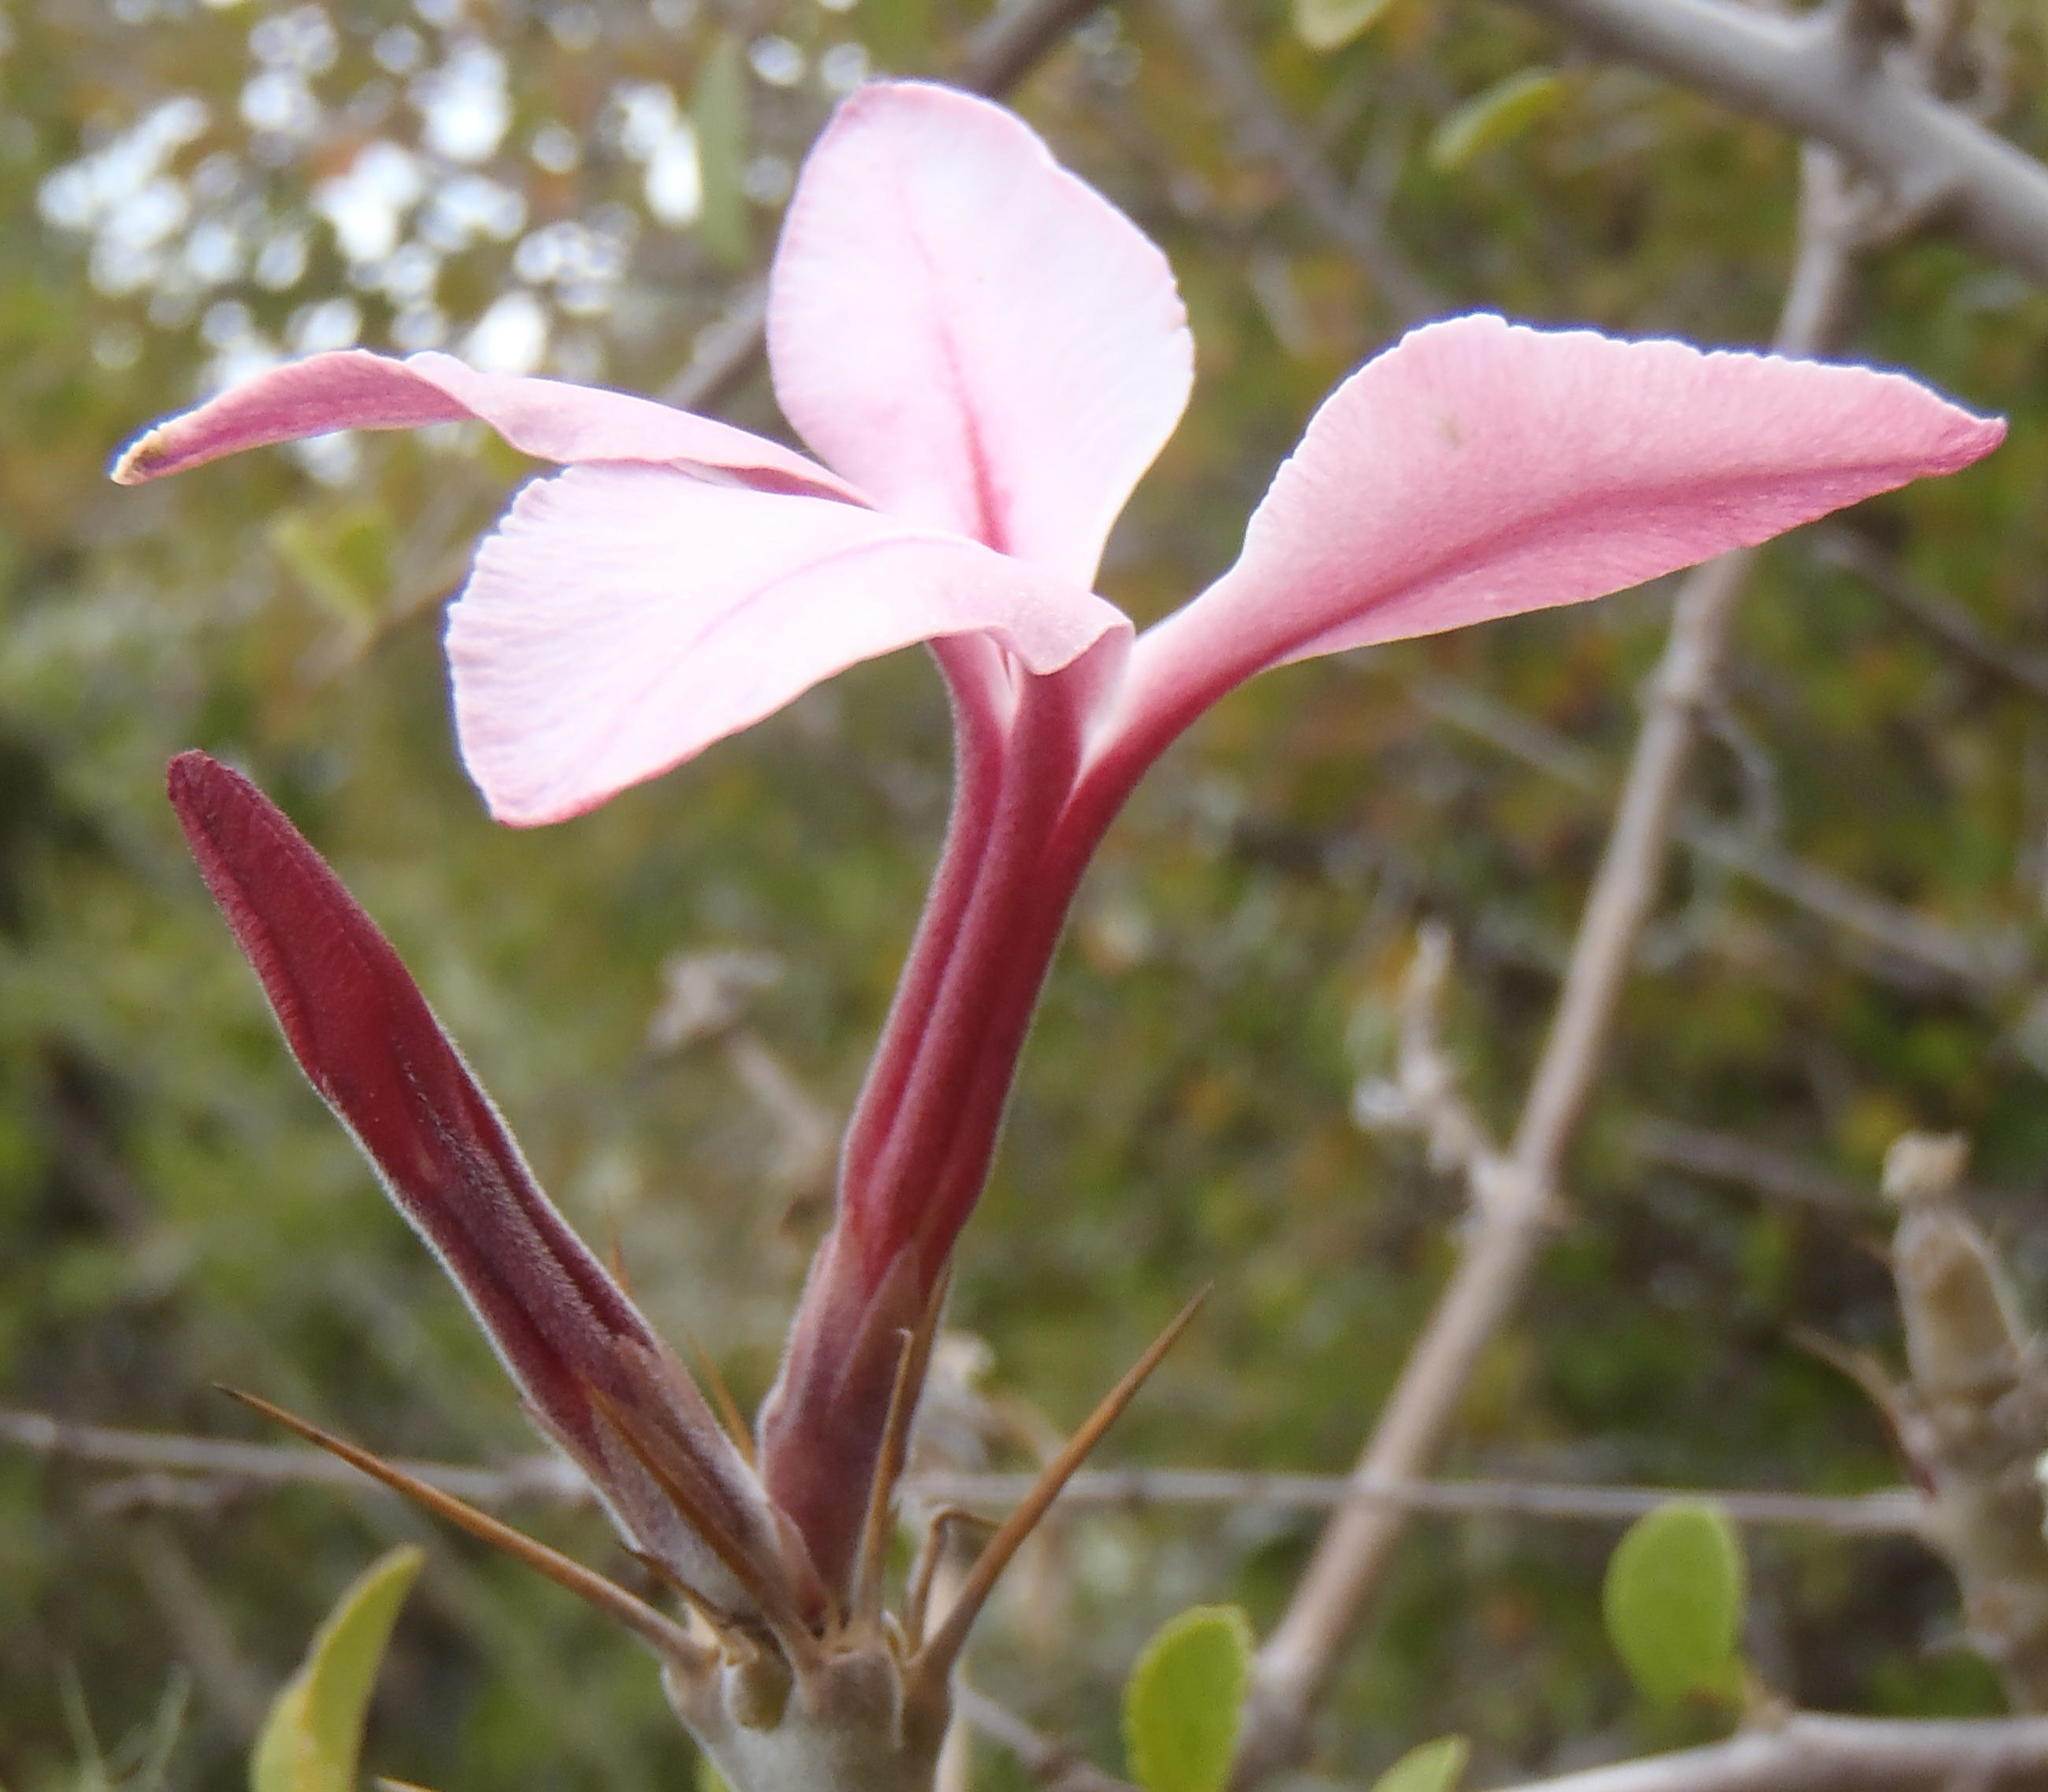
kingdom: Plantae
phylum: Tracheophyta
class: Magnoliopsida
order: Gentianales
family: Apocynaceae
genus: Pachypodium
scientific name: Pachypodium succulentum
